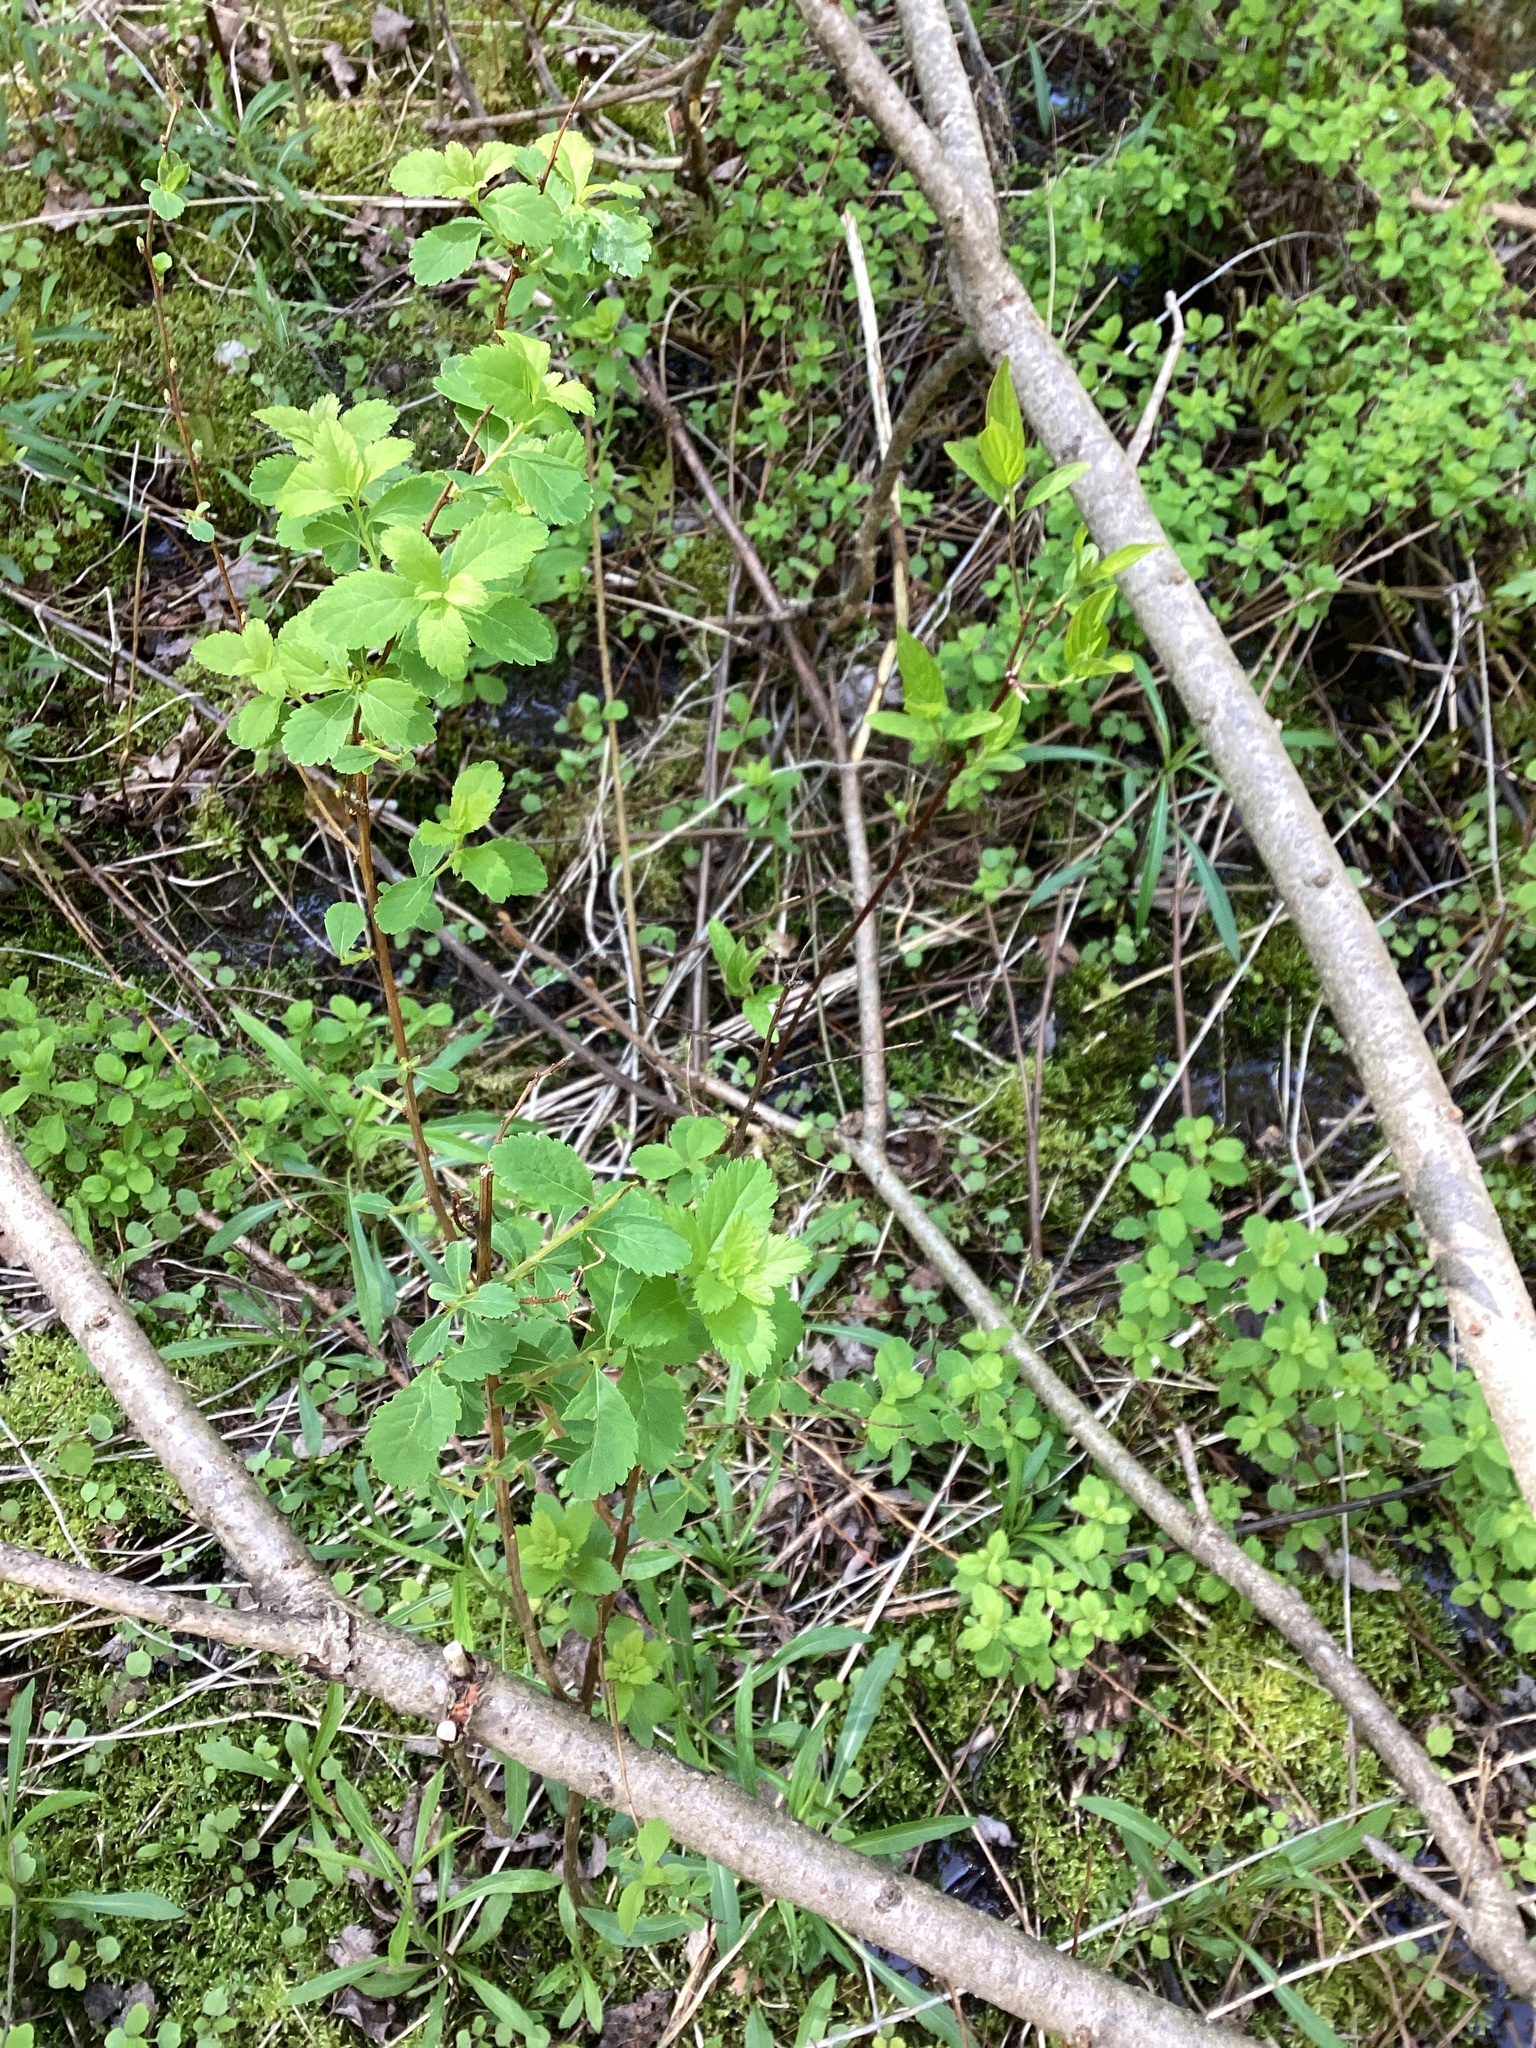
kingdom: Plantae
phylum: Tracheophyta
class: Magnoliopsida
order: Rosales
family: Rosaceae
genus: Spiraea
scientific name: Spiraea alba
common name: Pale bridewort
